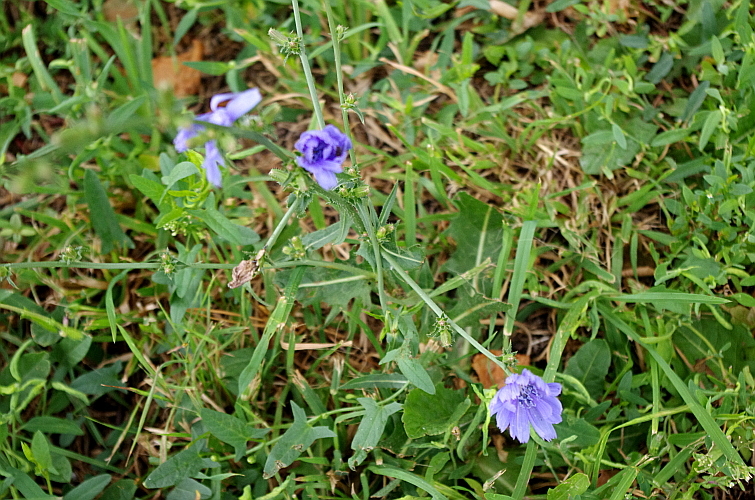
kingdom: Plantae
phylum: Tracheophyta
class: Magnoliopsida
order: Asterales
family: Asteraceae
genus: Cichorium
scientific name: Cichorium intybus
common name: Chicory
